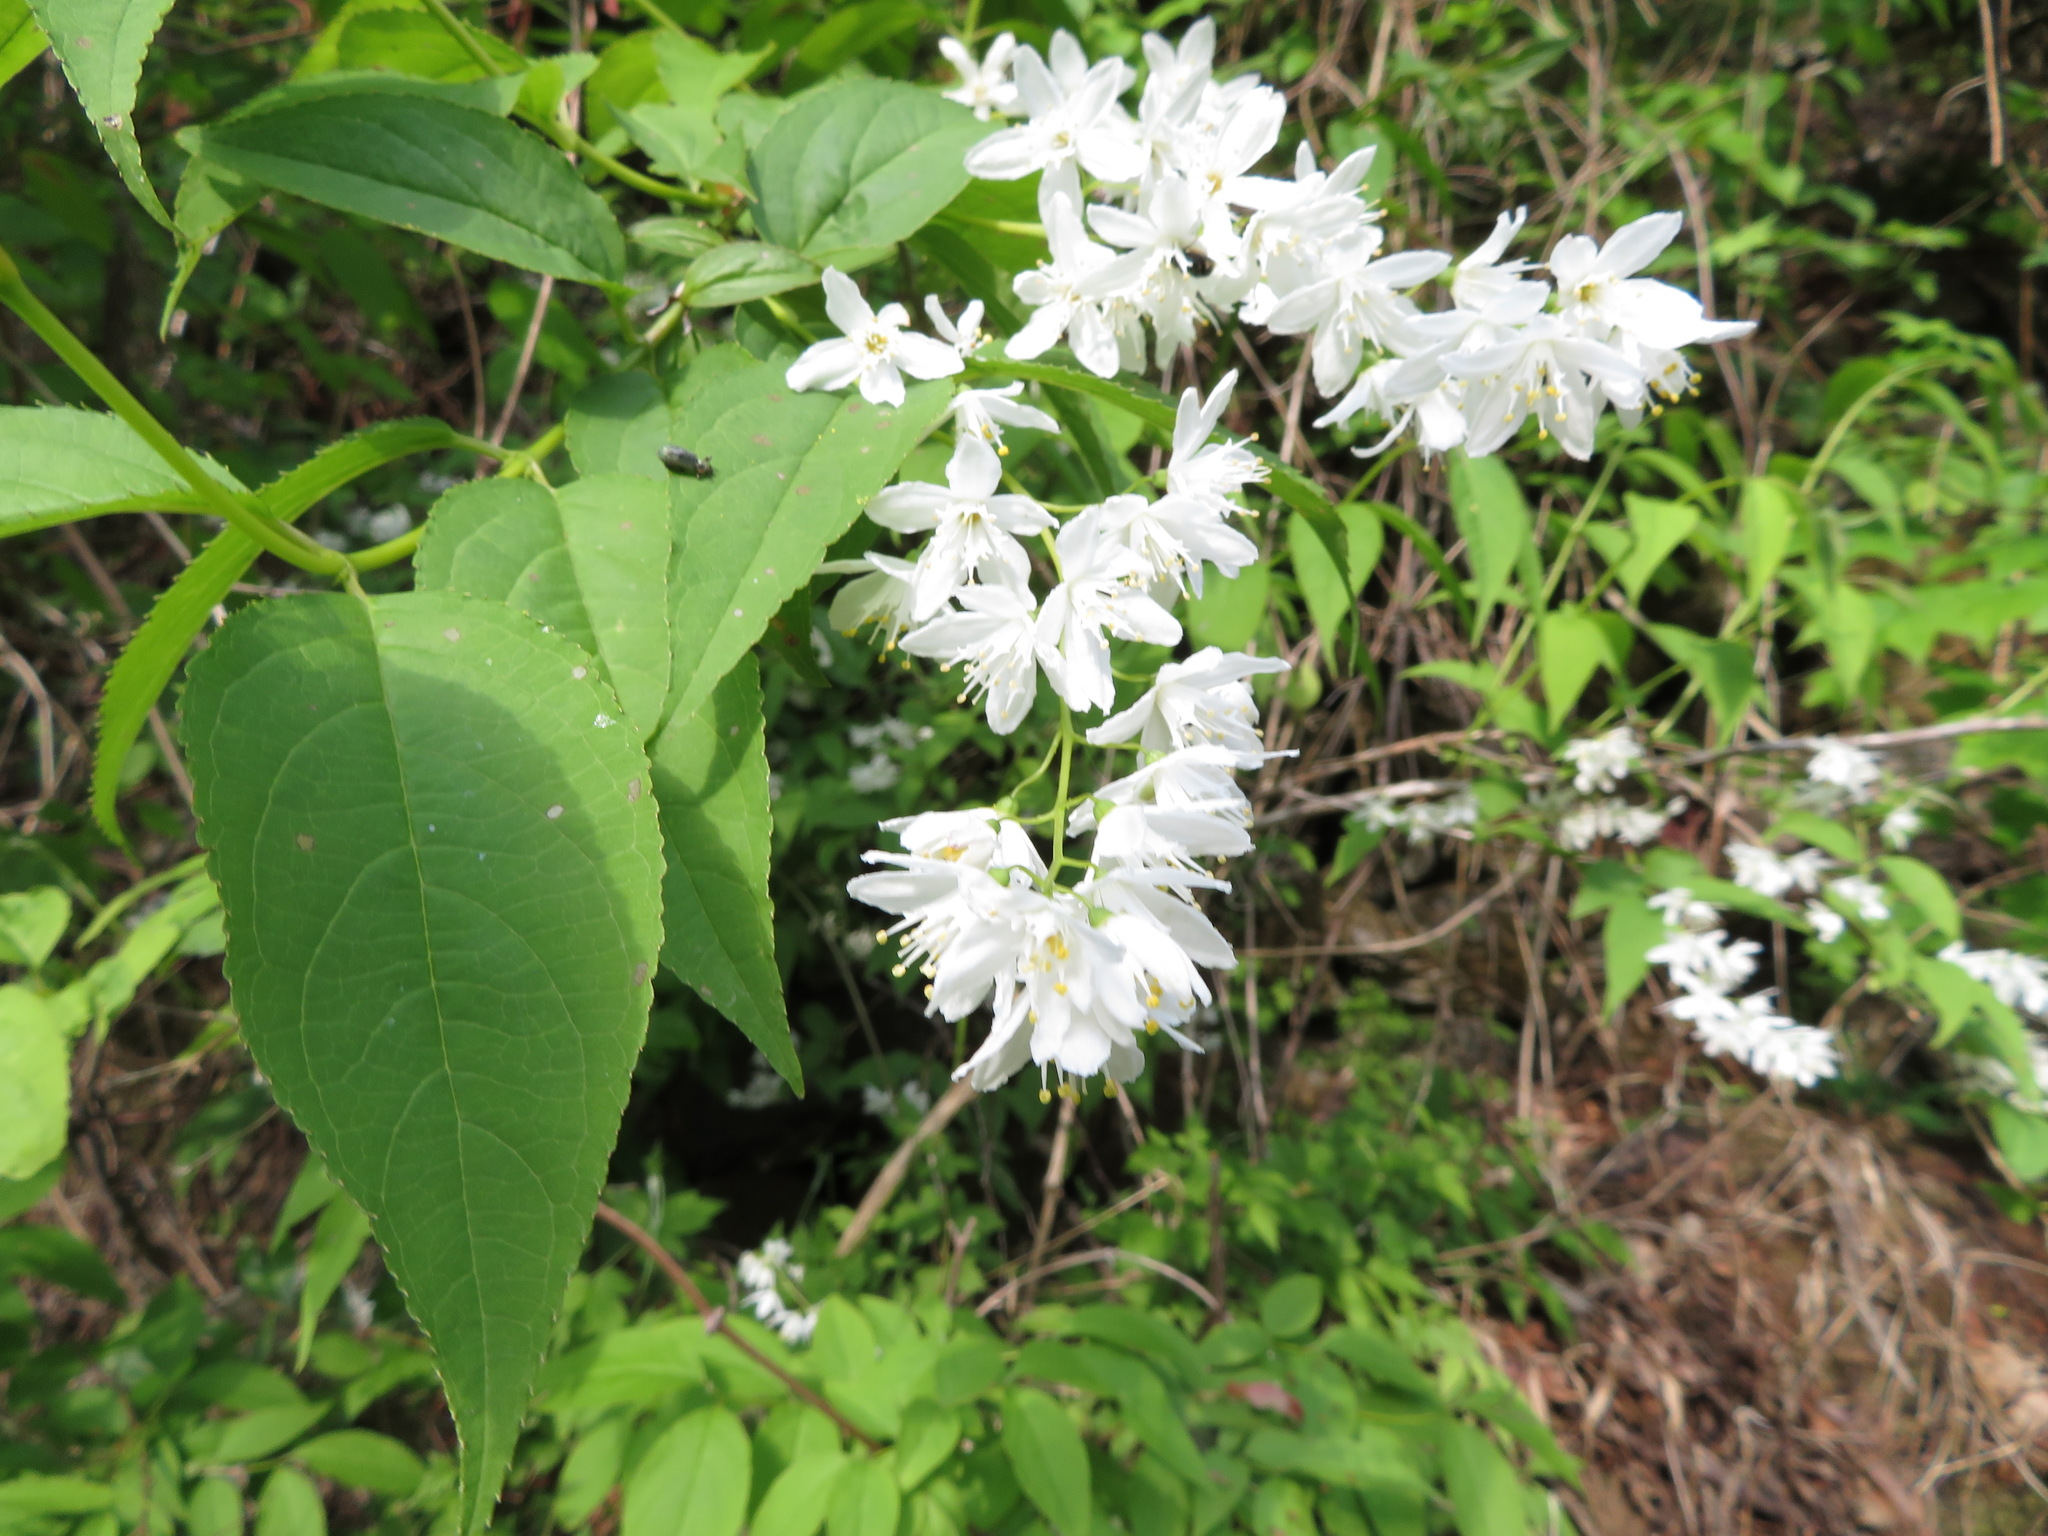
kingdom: Plantae
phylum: Tracheophyta
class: Magnoliopsida
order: Cornales
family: Hydrangeaceae
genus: Deutzia
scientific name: Deutzia gracilis
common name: Slender pride of rochester
